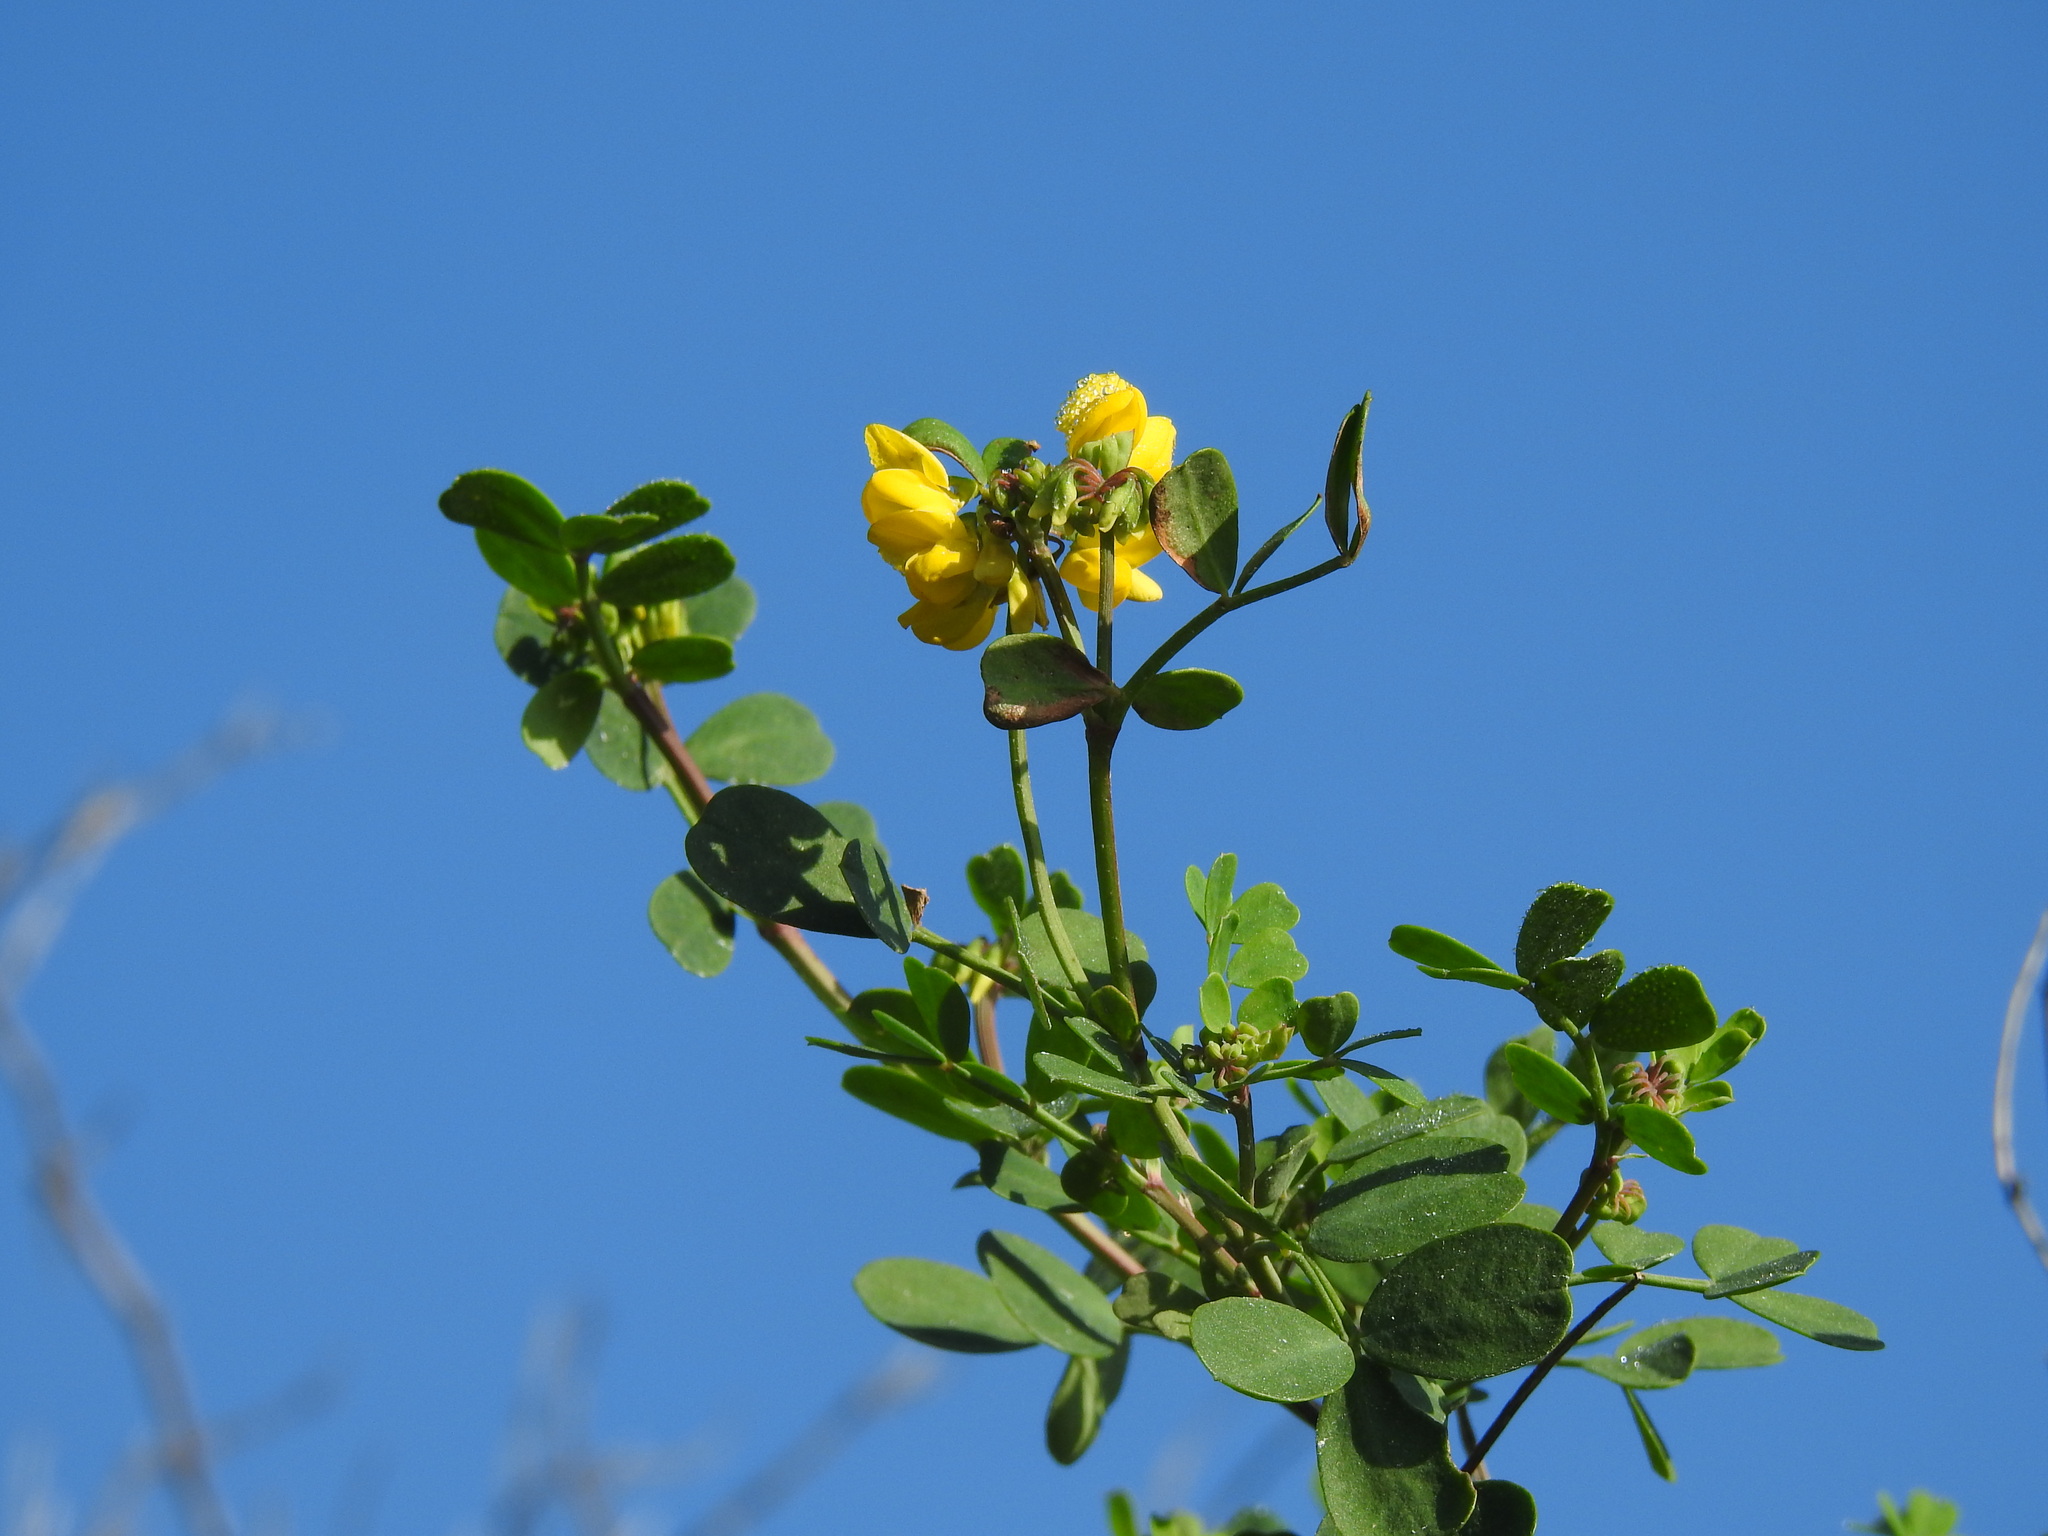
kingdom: Plantae
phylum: Tracheophyta
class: Magnoliopsida
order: Fabales
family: Fabaceae
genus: Coronilla
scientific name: Coronilla valentina
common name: Shrubby scorpion-vetch
